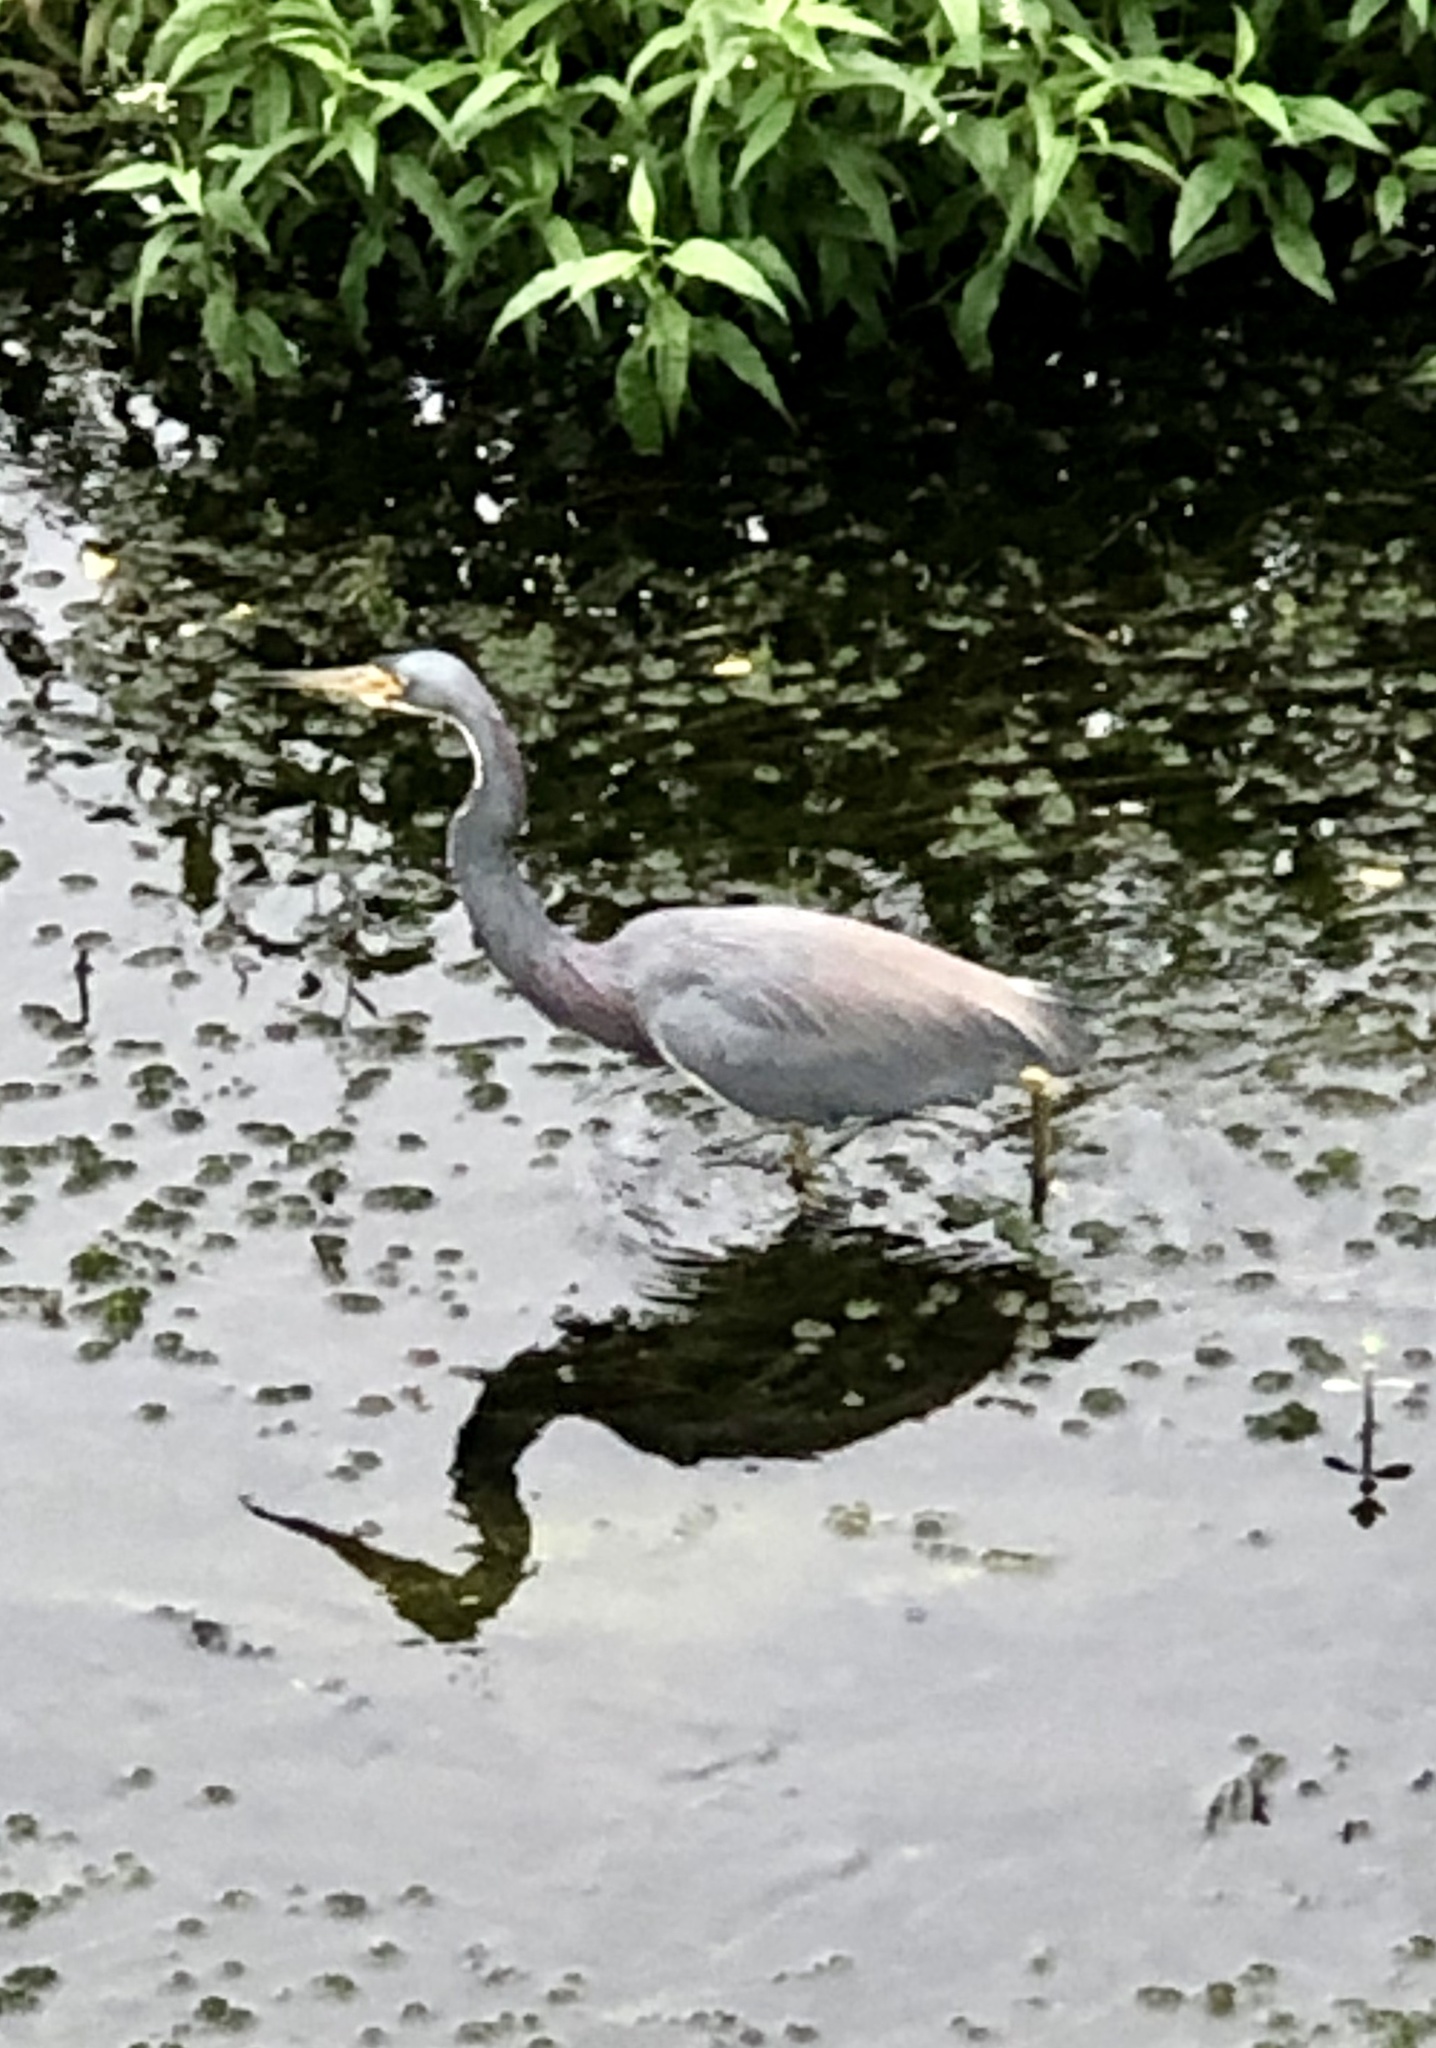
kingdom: Animalia
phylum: Chordata
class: Aves
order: Pelecaniformes
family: Ardeidae
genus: Egretta
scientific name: Egretta tricolor
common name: Tricolored heron
